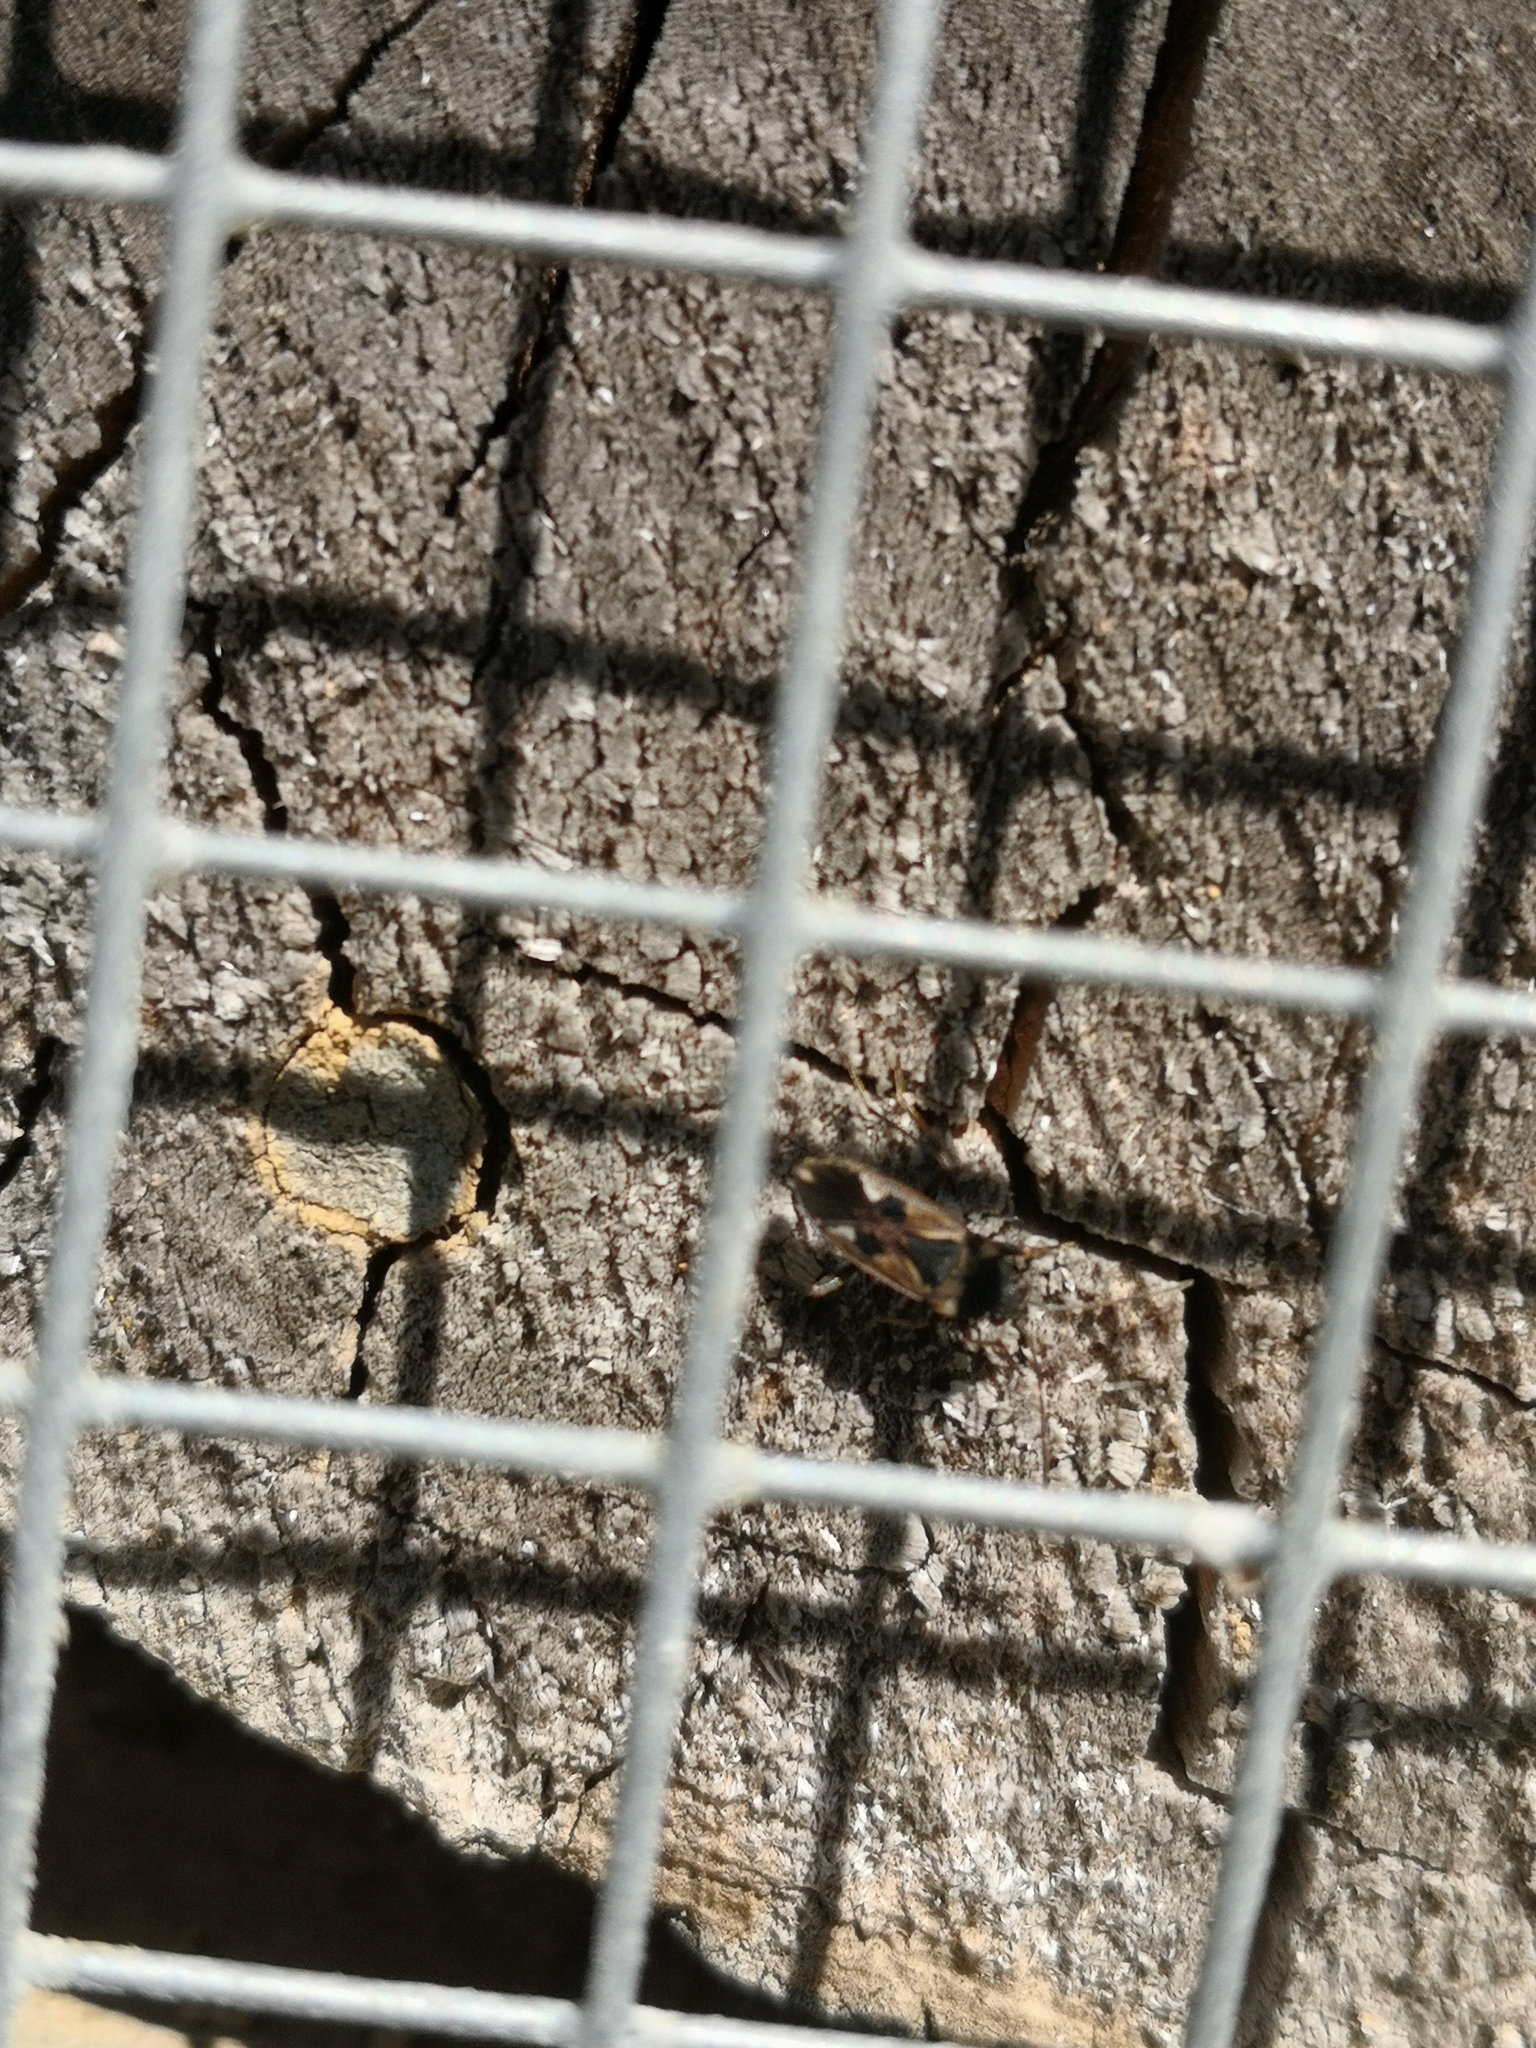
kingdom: Animalia
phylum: Arthropoda
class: Insecta
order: Hemiptera
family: Rhyparochromidae
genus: Rhyparochromus
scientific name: Rhyparochromus vulgaris
